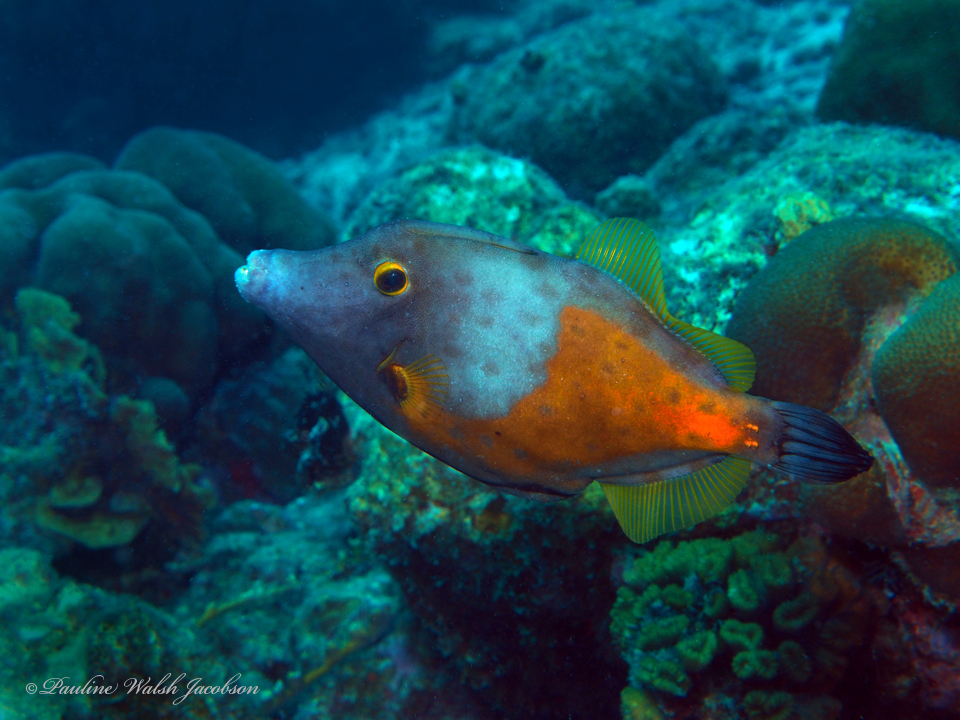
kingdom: Animalia
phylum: Chordata
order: Tetraodontiformes
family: Monacanthidae
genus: Cantherhines
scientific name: Cantherhines macrocerus
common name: Whitespotted filefish
